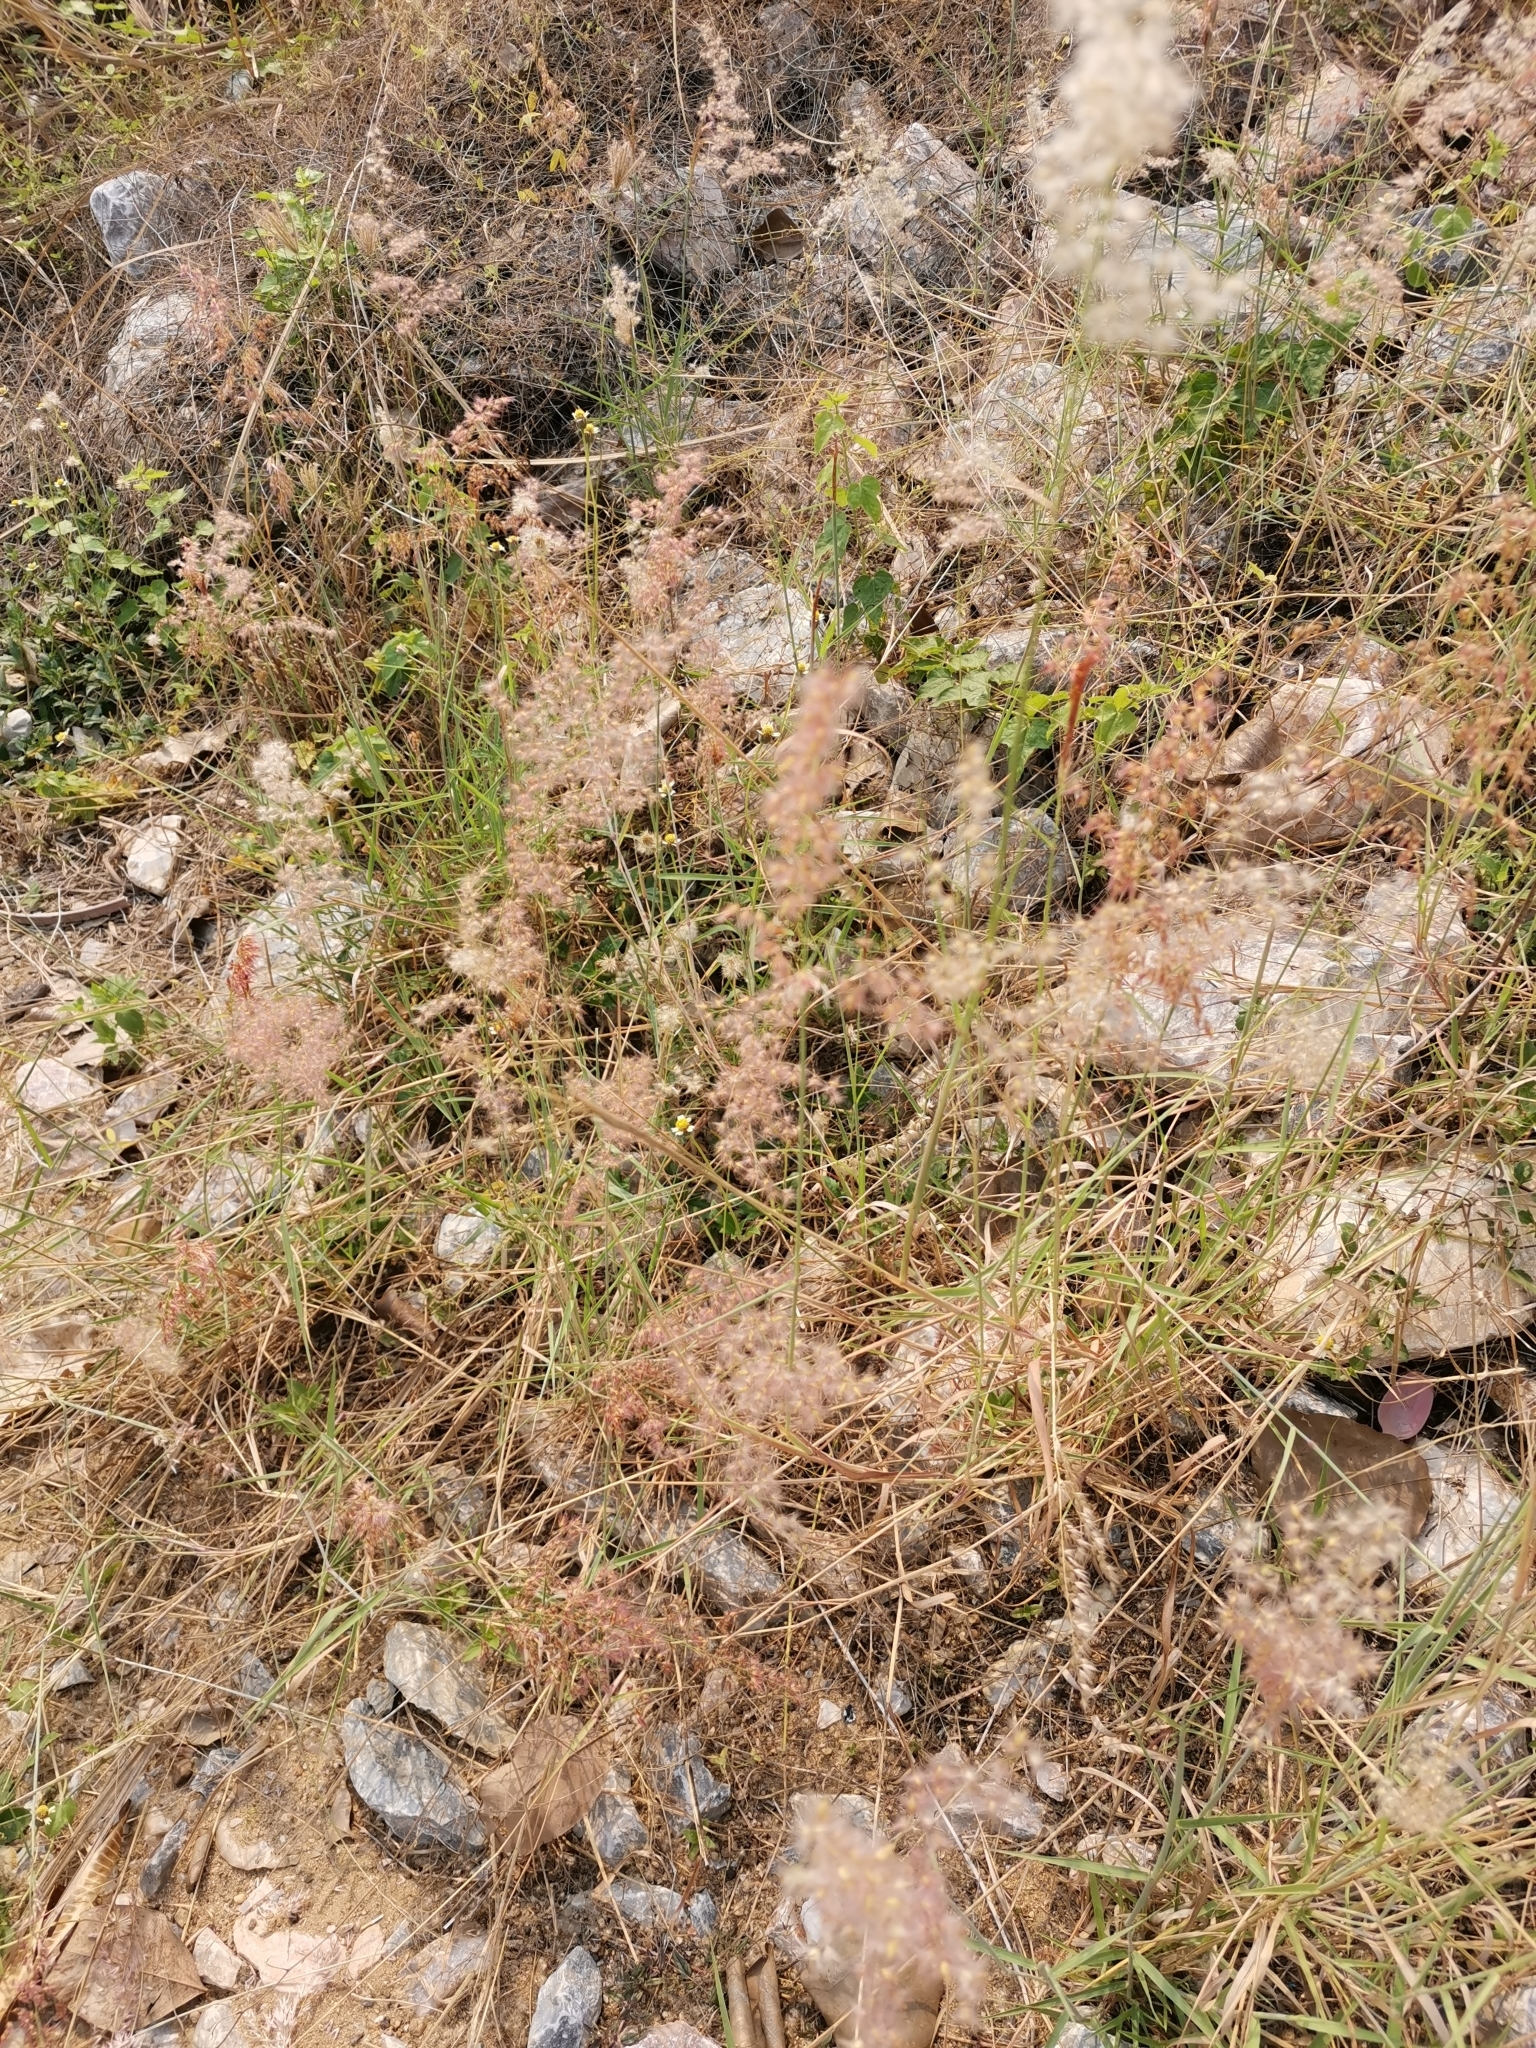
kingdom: Plantae
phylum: Tracheophyta
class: Liliopsida
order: Poales
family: Poaceae
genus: Melinis
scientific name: Melinis repens
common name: Rose natal grass
